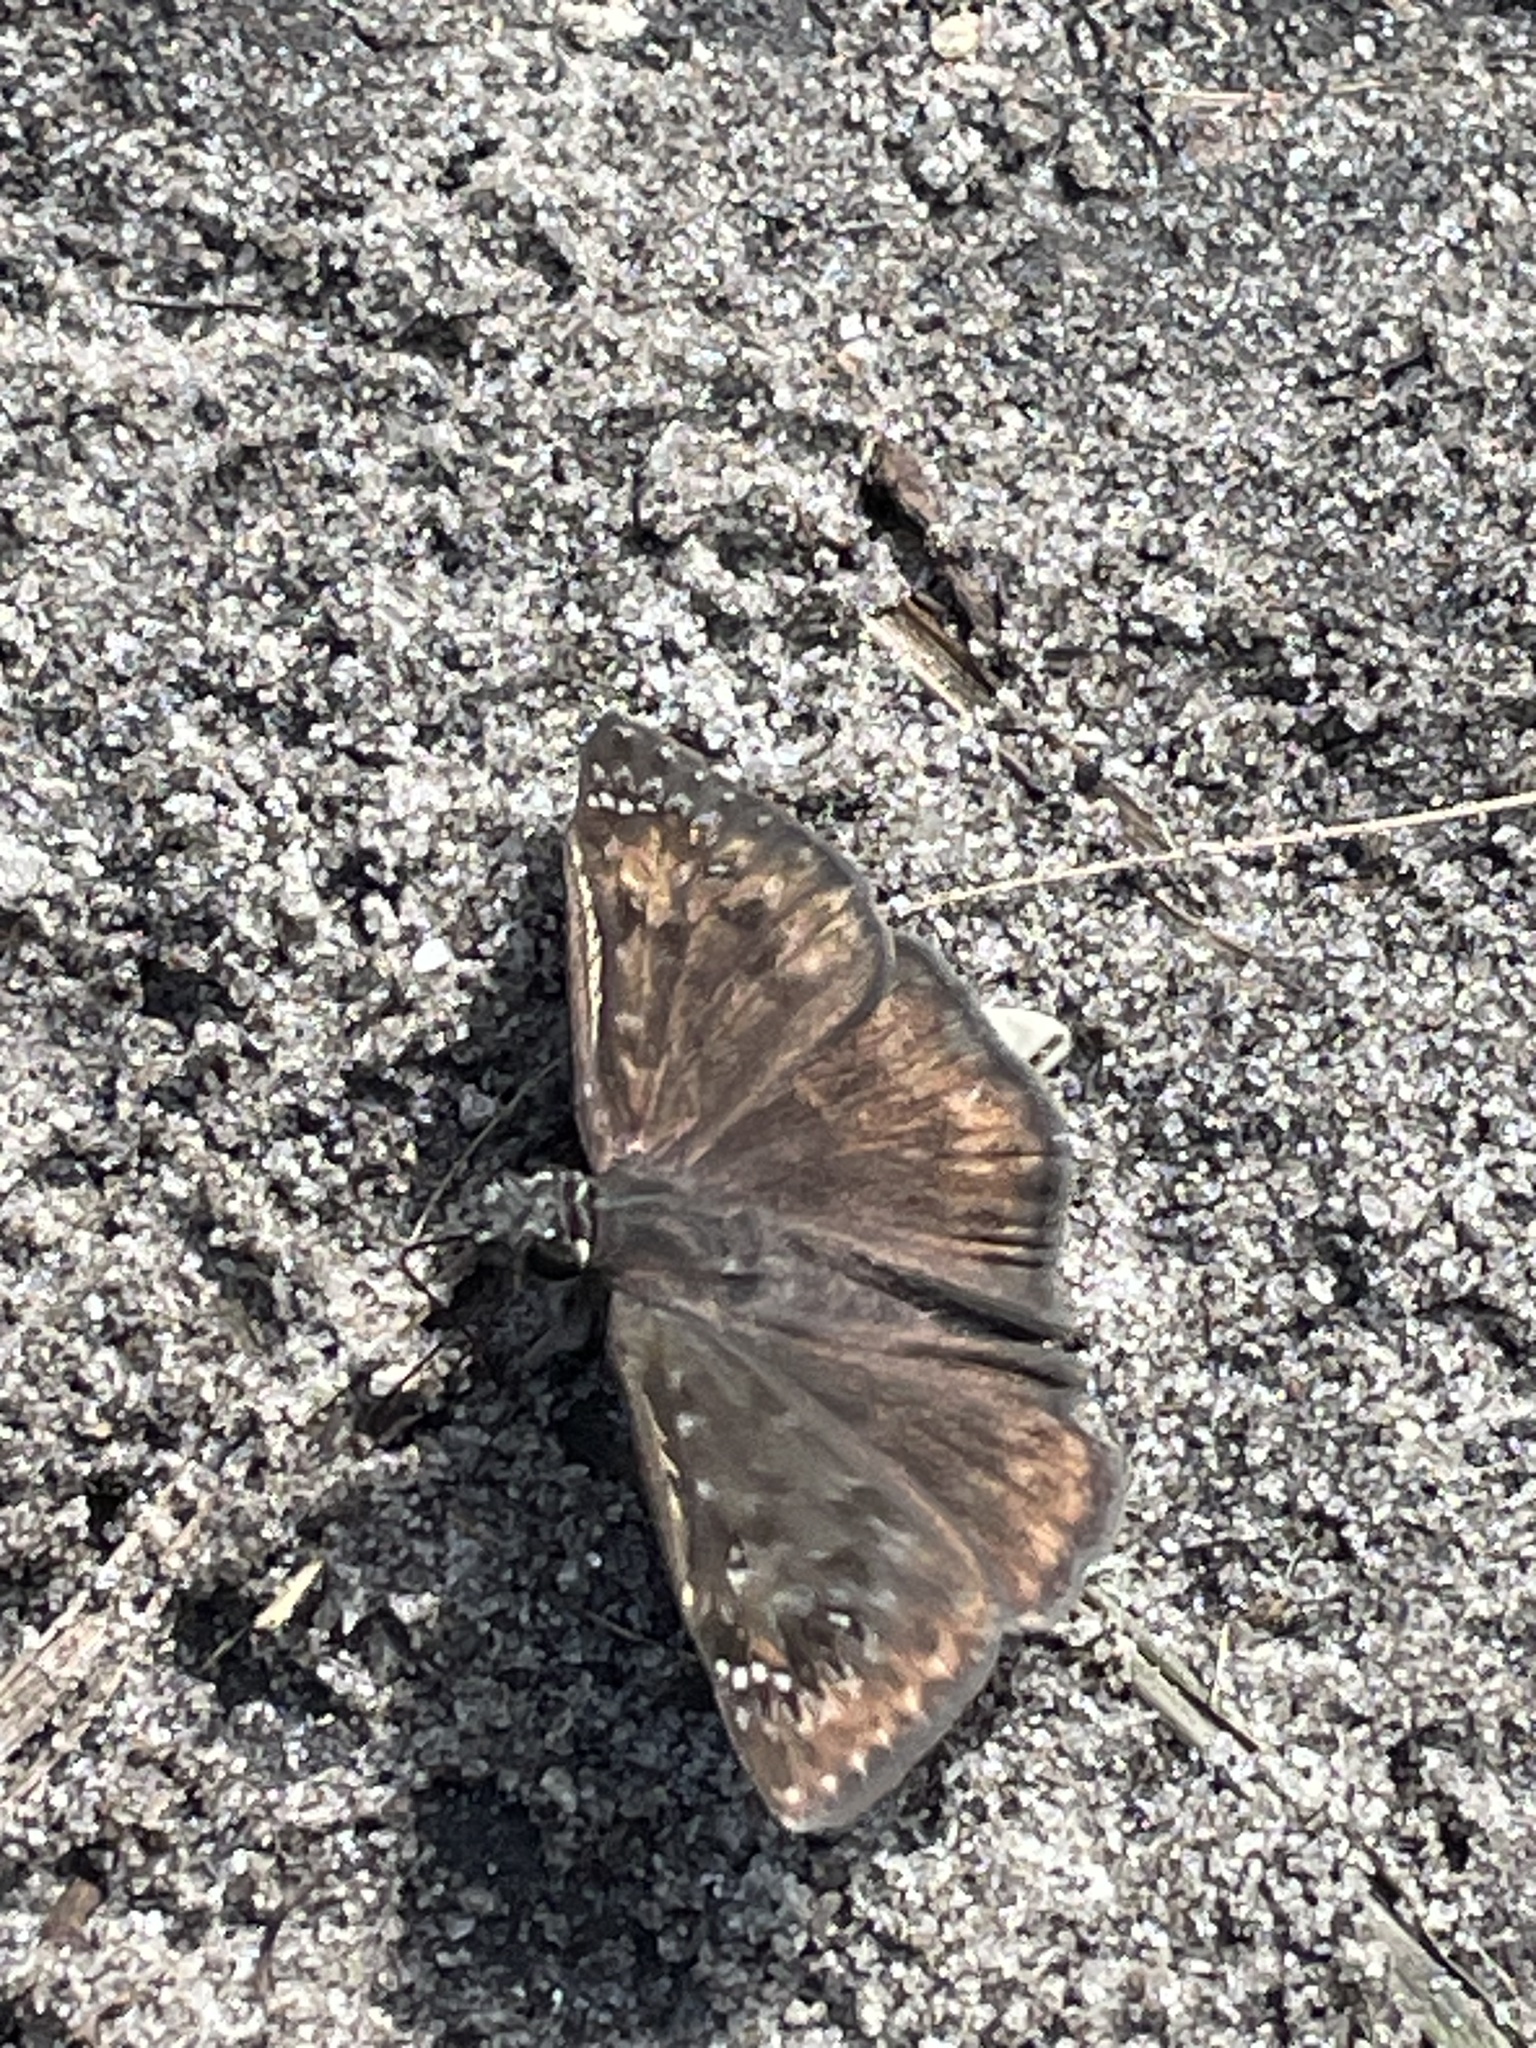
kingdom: Animalia
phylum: Arthropoda
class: Insecta
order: Lepidoptera
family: Hesperiidae
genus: Erynnis
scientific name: Erynnis horatius
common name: Horace's duskywing
